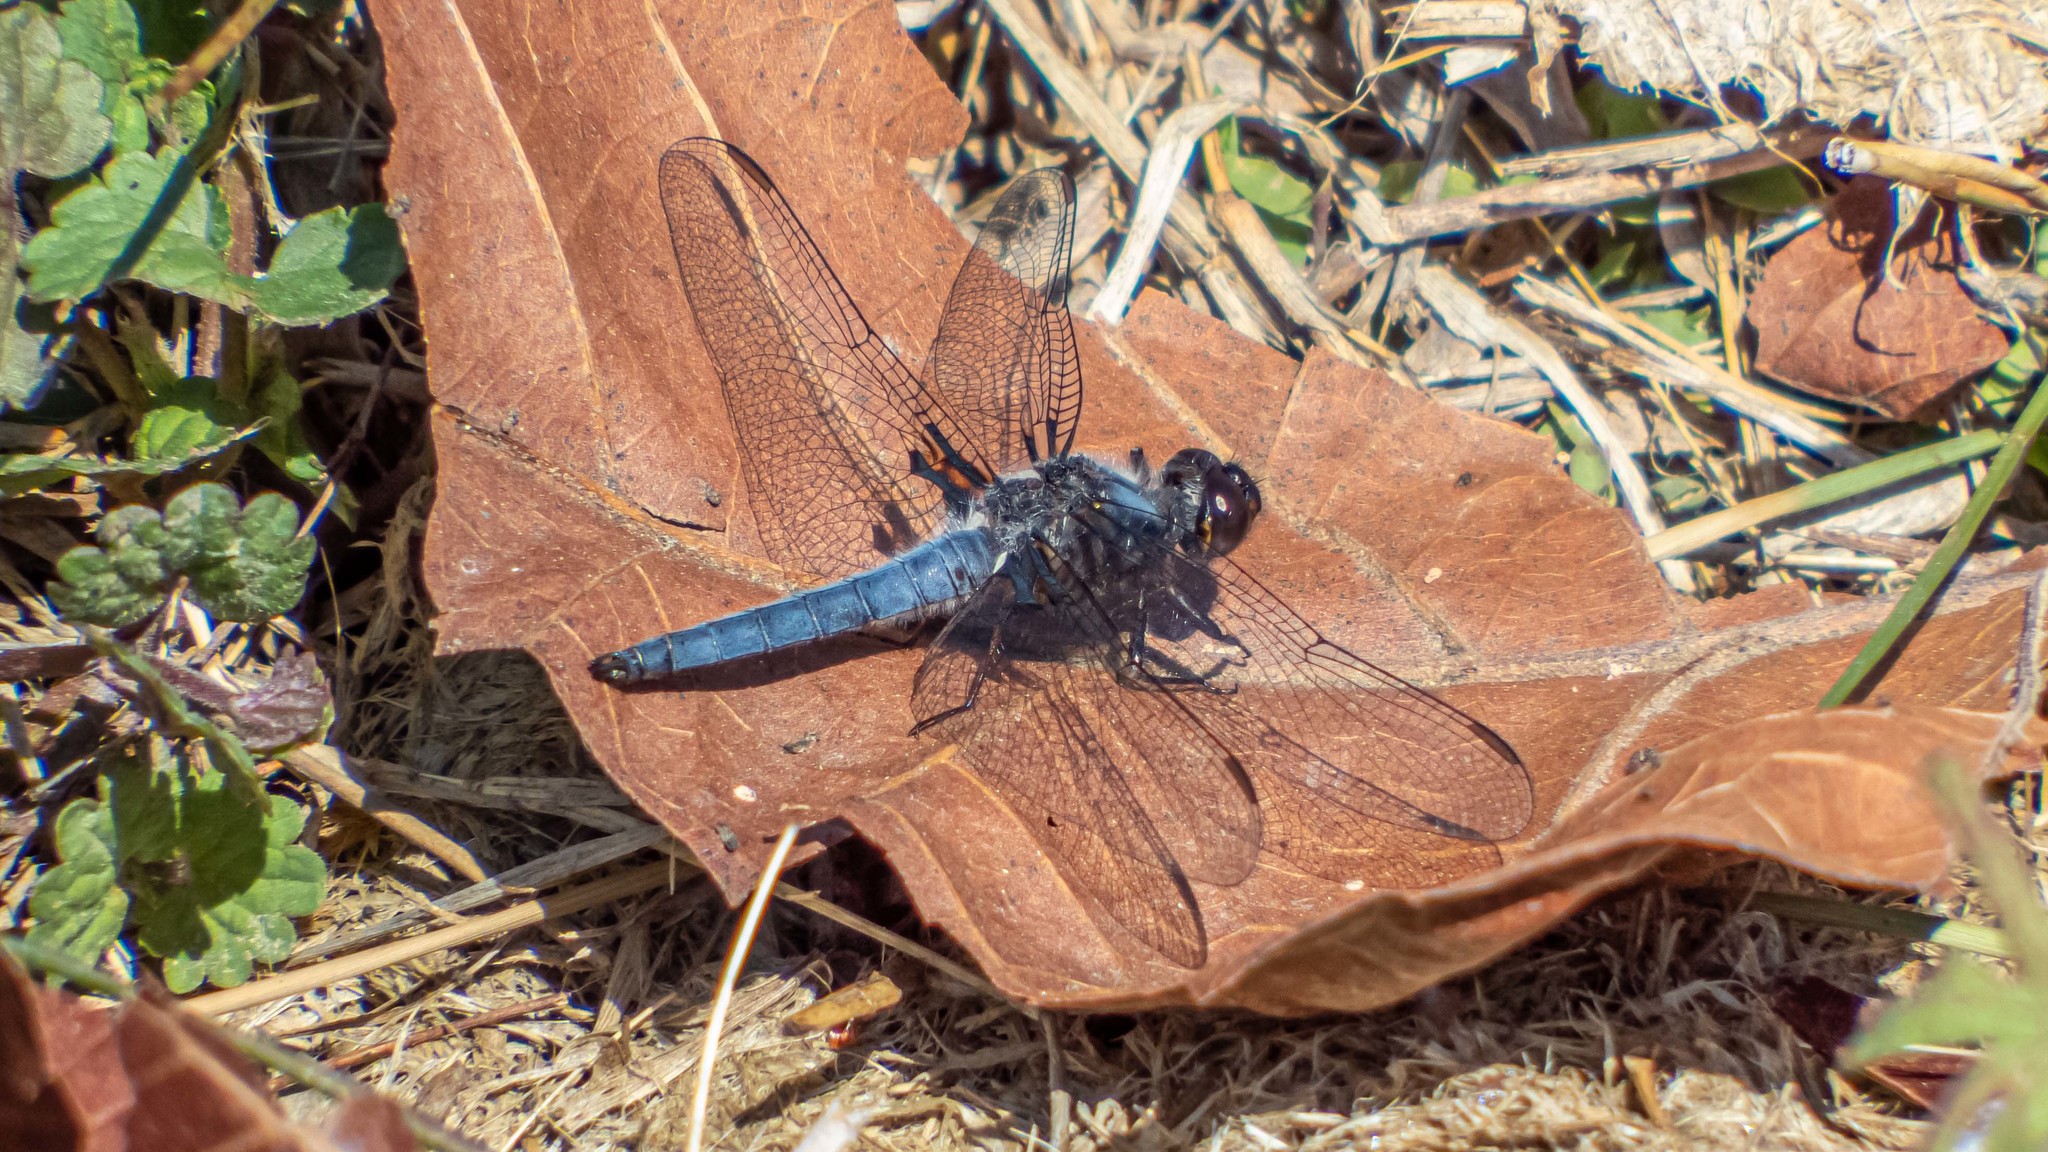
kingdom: Animalia
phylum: Arthropoda
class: Insecta
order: Odonata
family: Libellulidae
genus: Ladona
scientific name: Ladona deplanata
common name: Blue corporal
